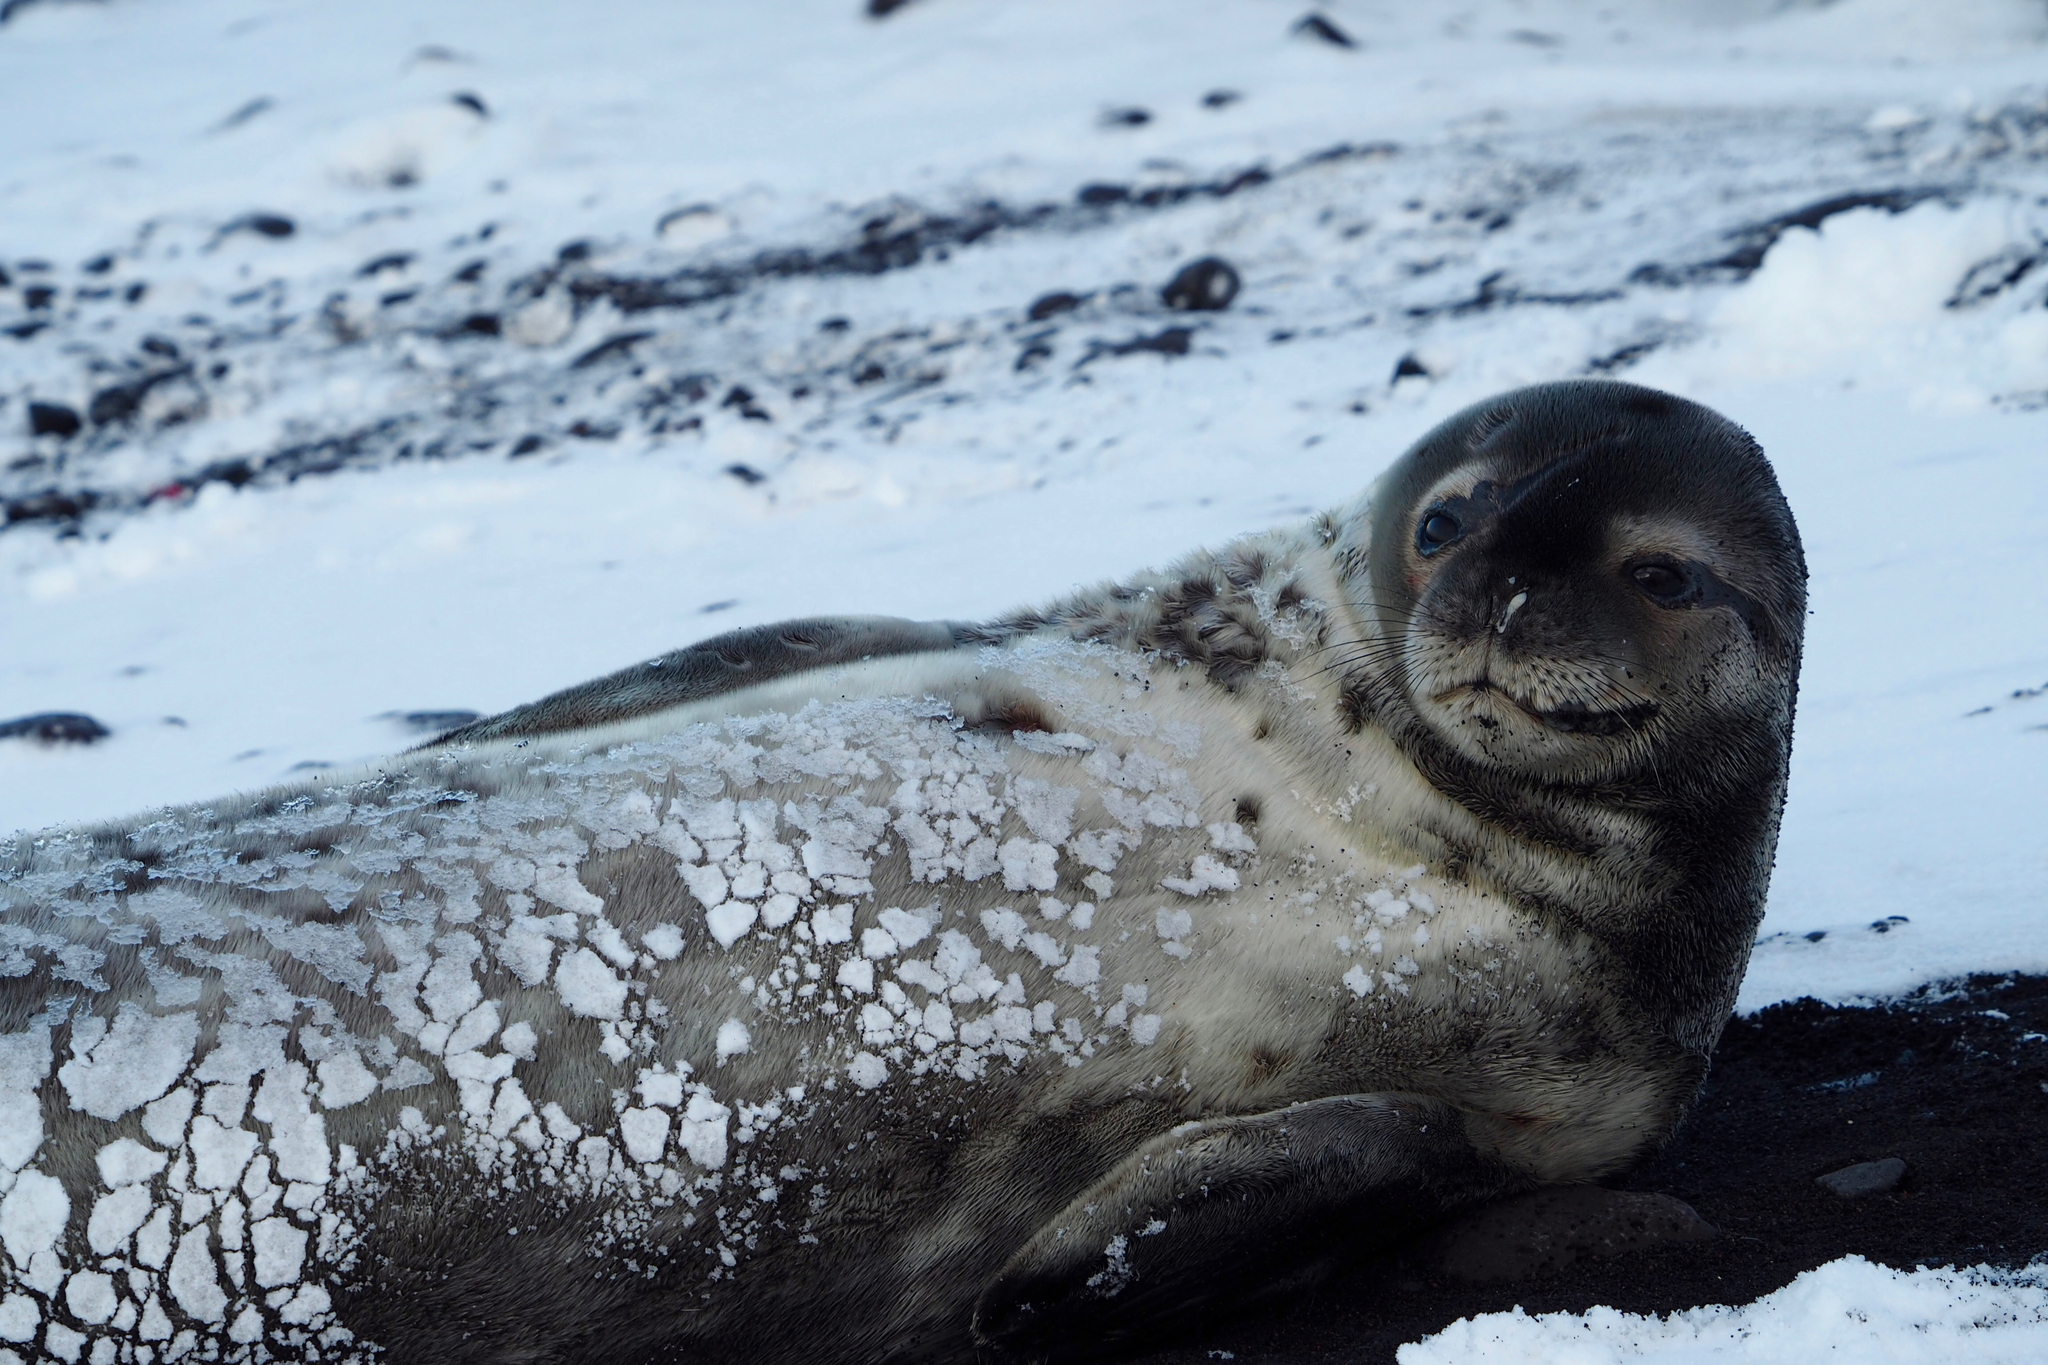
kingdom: Animalia
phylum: Chordata
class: Mammalia
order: Carnivora
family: Phocidae
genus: Leptonychotes
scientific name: Leptonychotes weddellii
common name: Weddell seal
